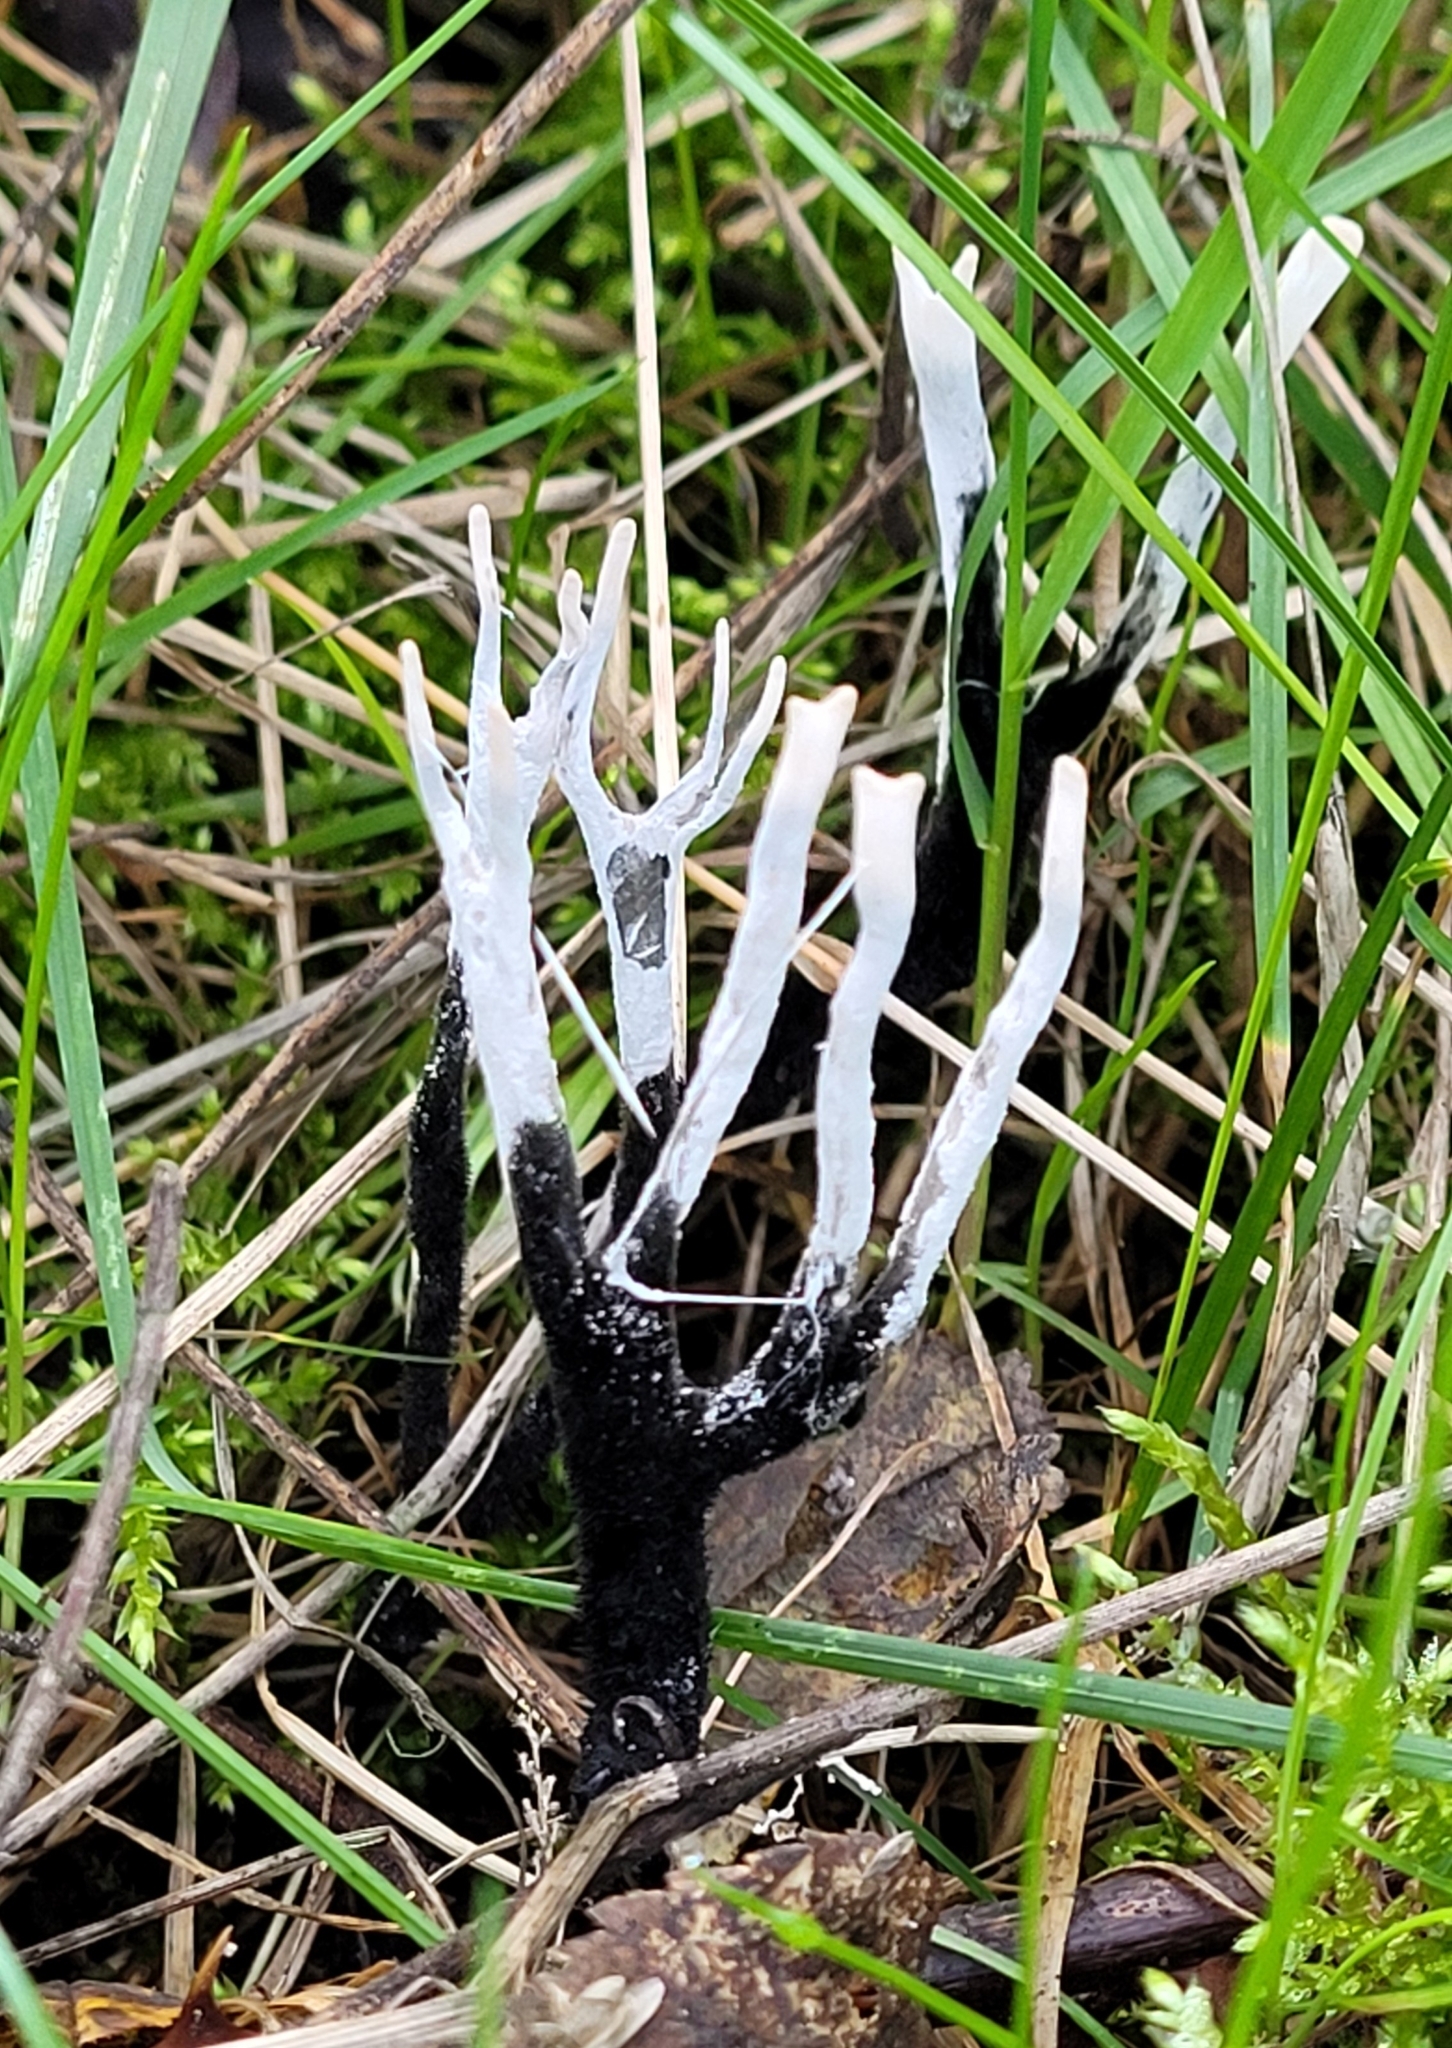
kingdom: Fungi
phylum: Ascomycota
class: Sordariomycetes
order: Xylariales
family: Xylariaceae
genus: Xylaria
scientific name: Xylaria hypoxylon
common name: Candle-snuff fungus
